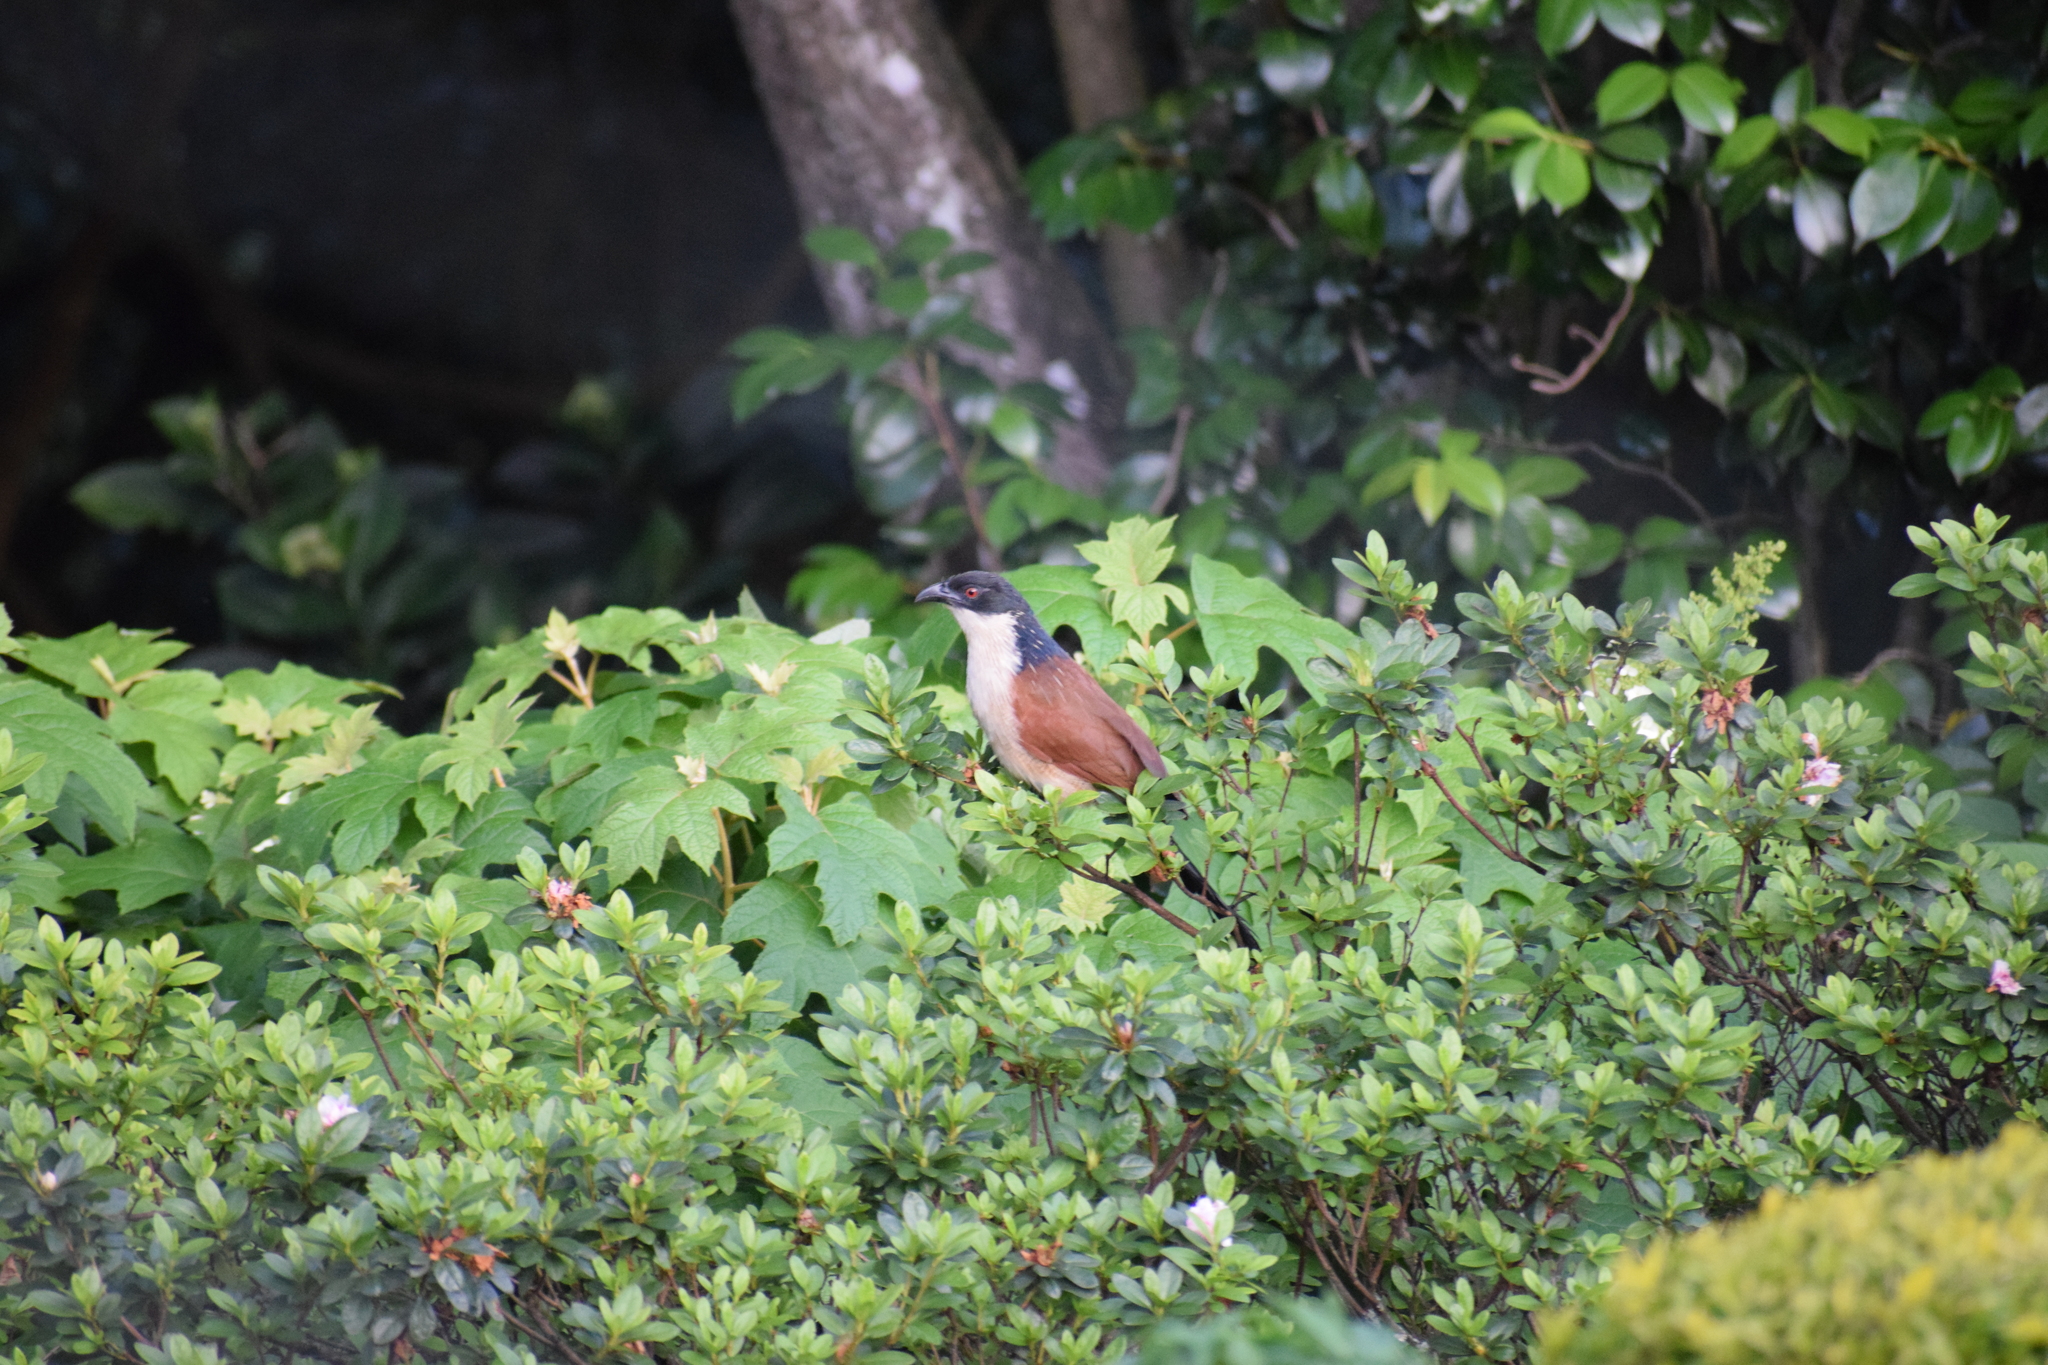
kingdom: Animalia
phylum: Chordata
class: Aves
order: Cuculiformes
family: Cuculidae
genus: Centropus
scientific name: Centropus superciliosus
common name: White-browed coucal
